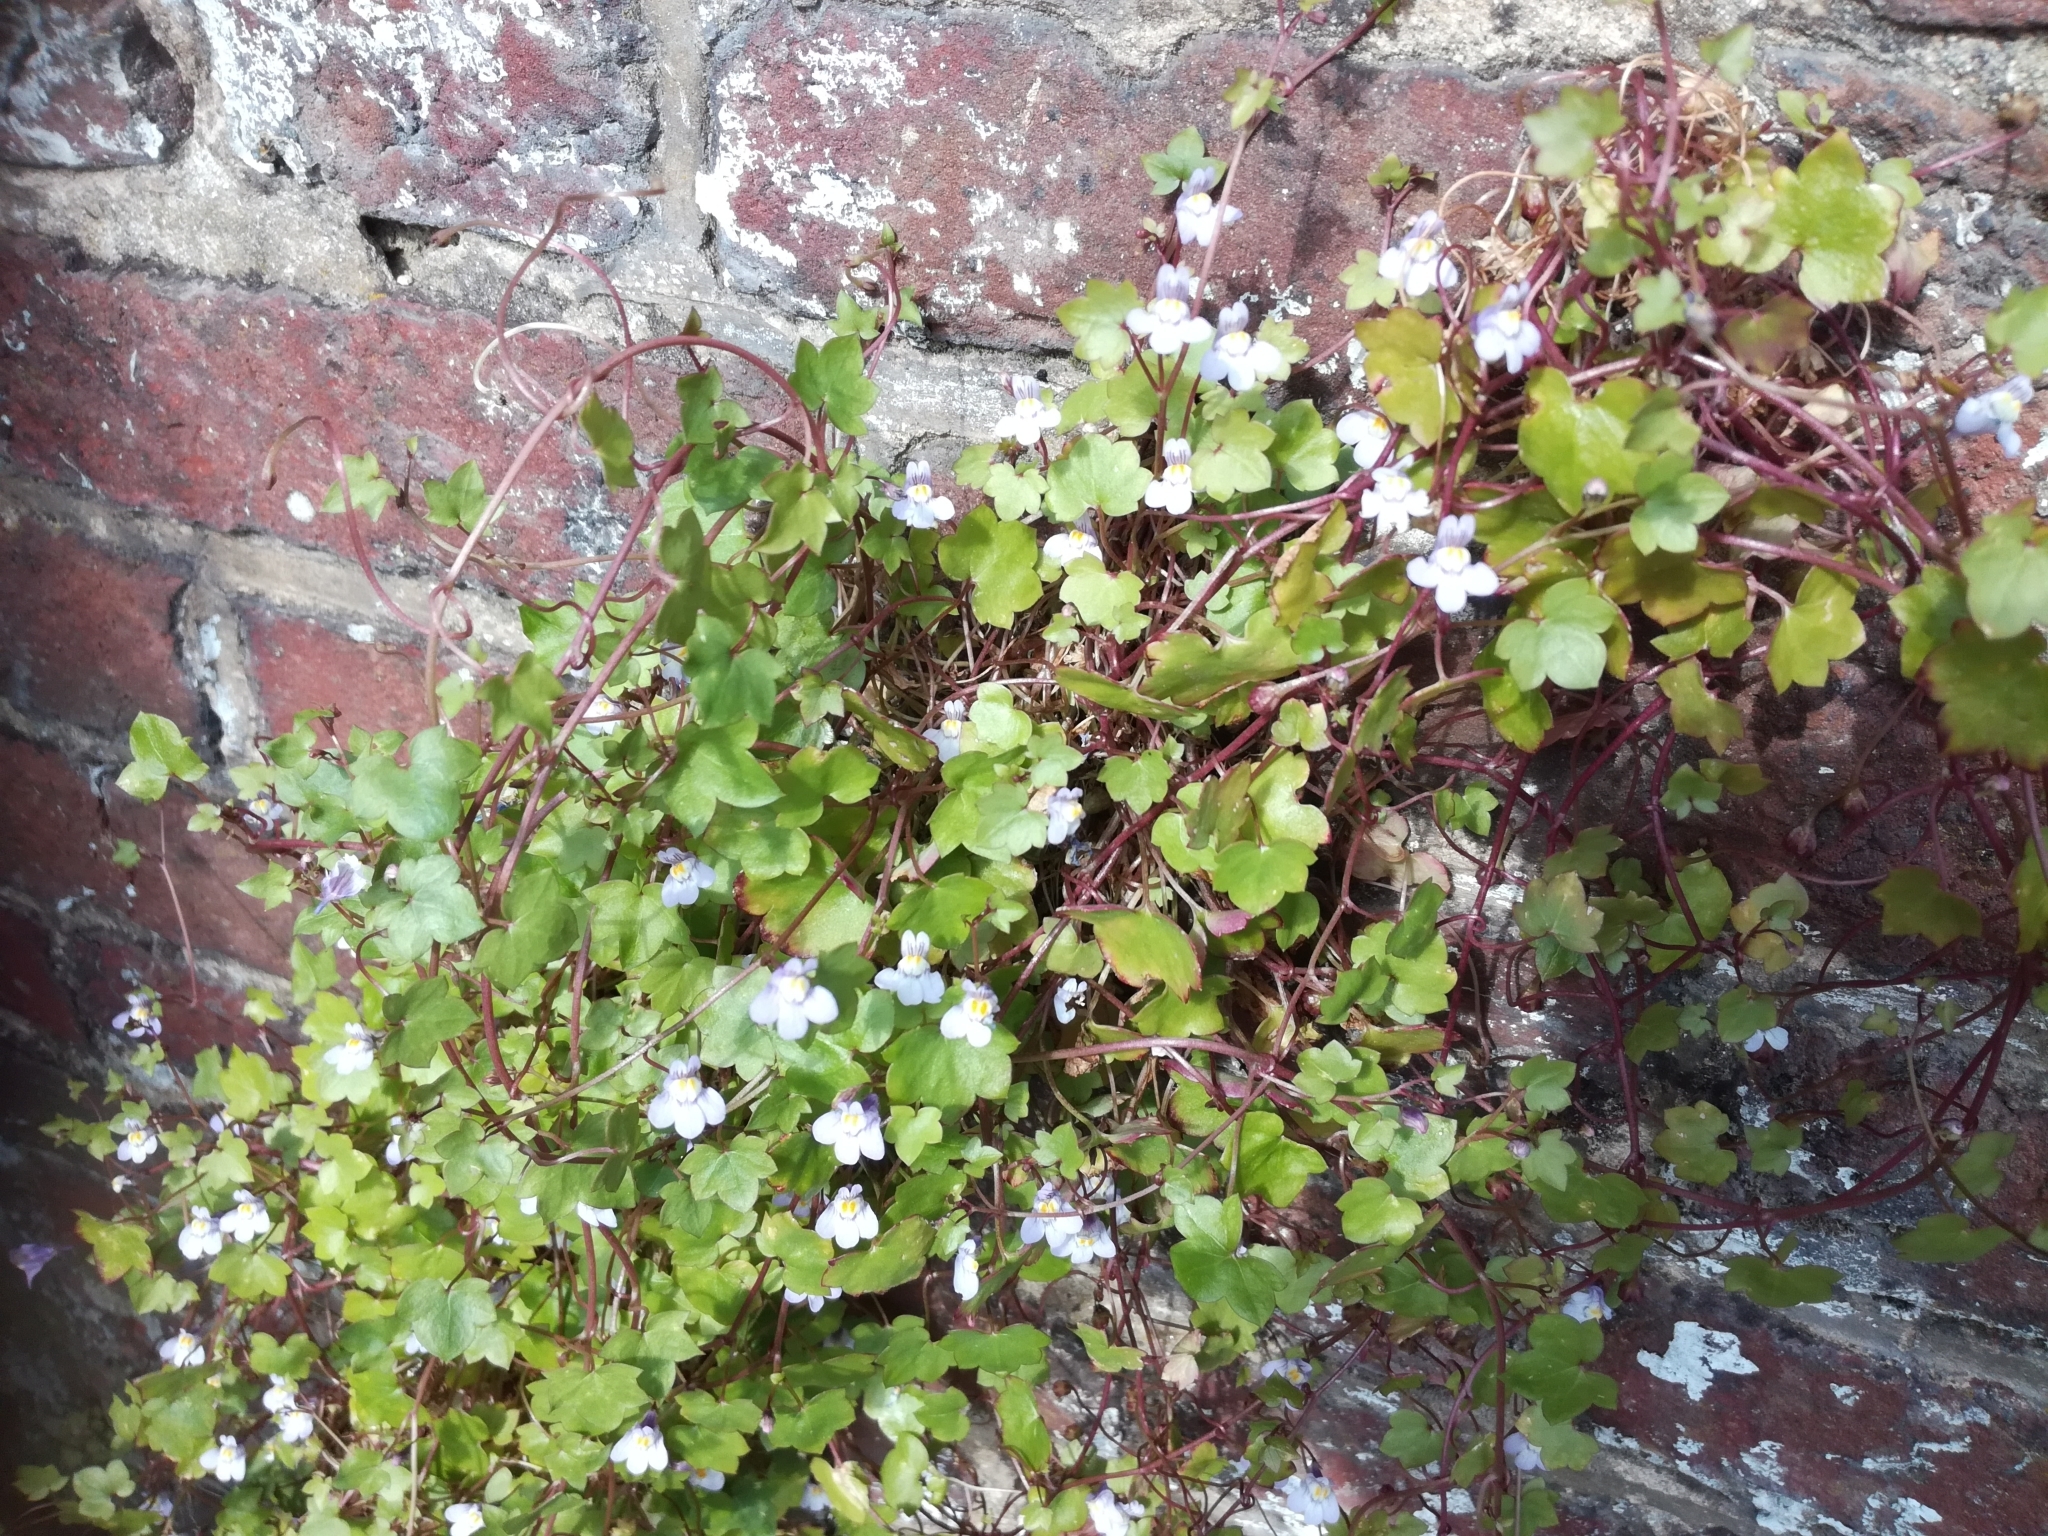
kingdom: Plantae
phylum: Tracheophyta
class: Magnoliopsida
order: Lamiales
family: Plantaginaceae
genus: Cymbalaria
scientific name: Cymbalaria muralis
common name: Ivy-leaved toadflax
